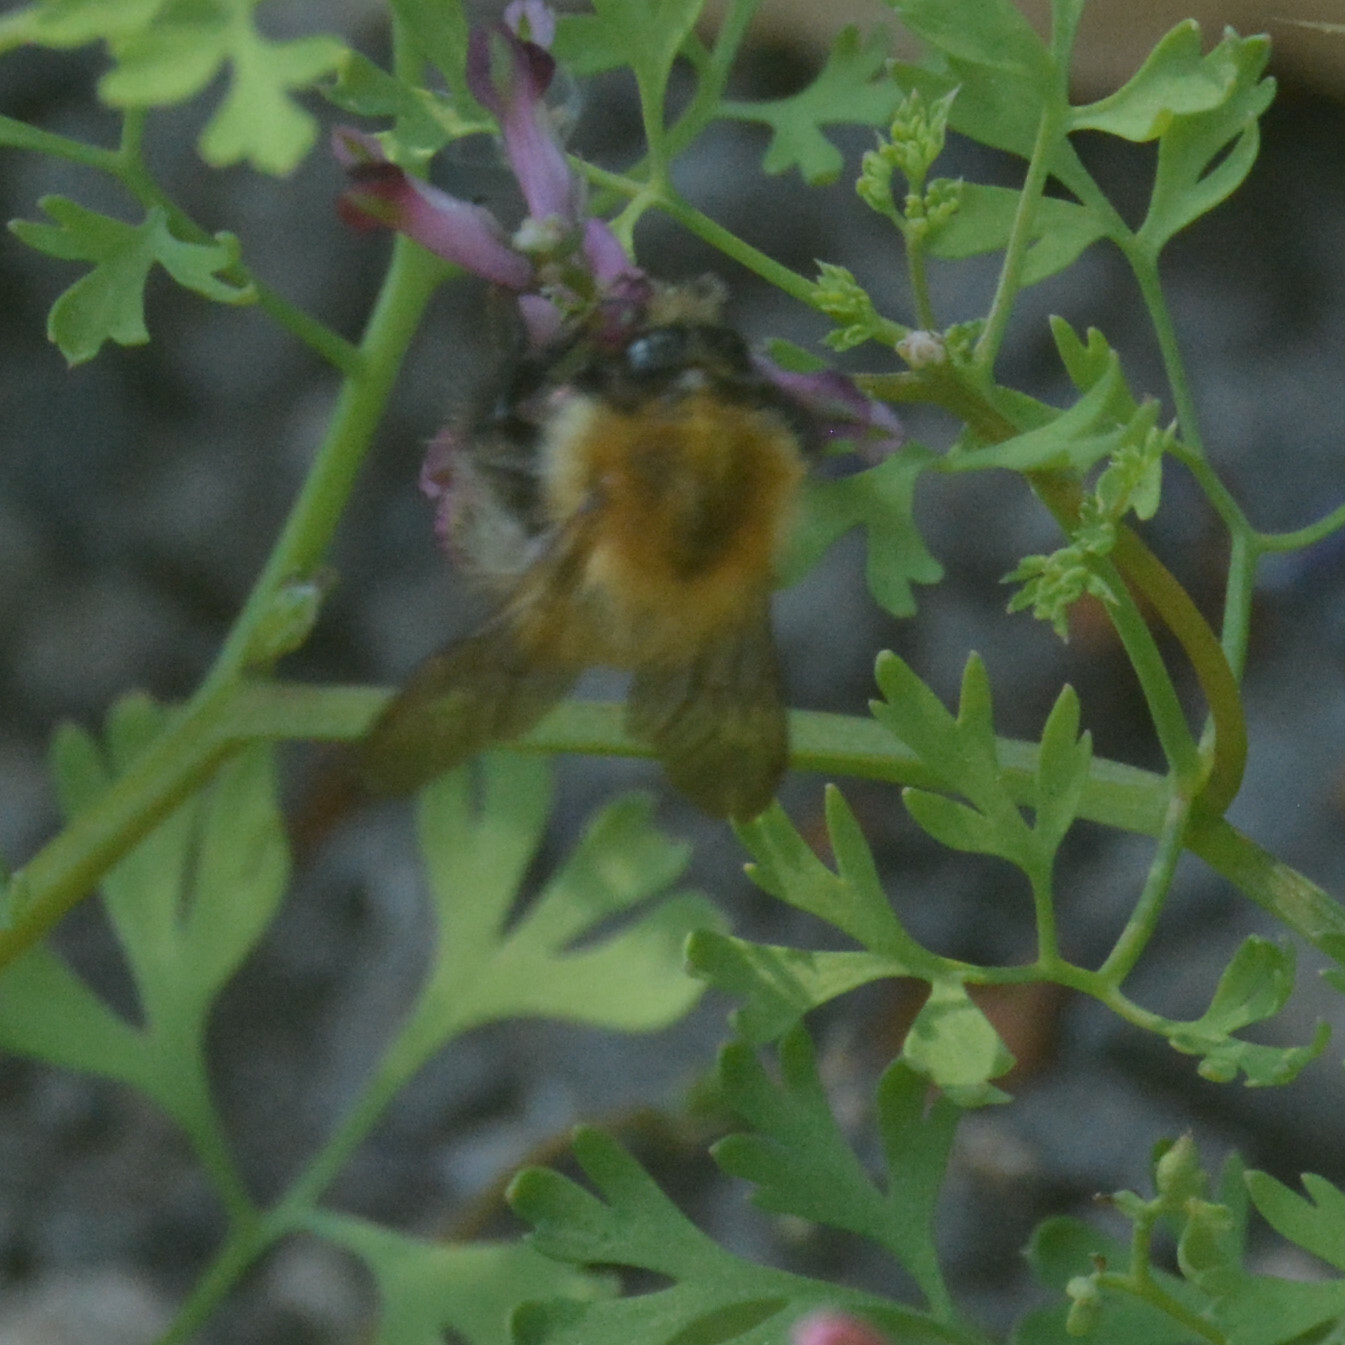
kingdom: Animalia
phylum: Arthropoda
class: Insecta
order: Hymenoptera
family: Apidae
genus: Bombus
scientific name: Bombus pascuorum
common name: Common carder bee
